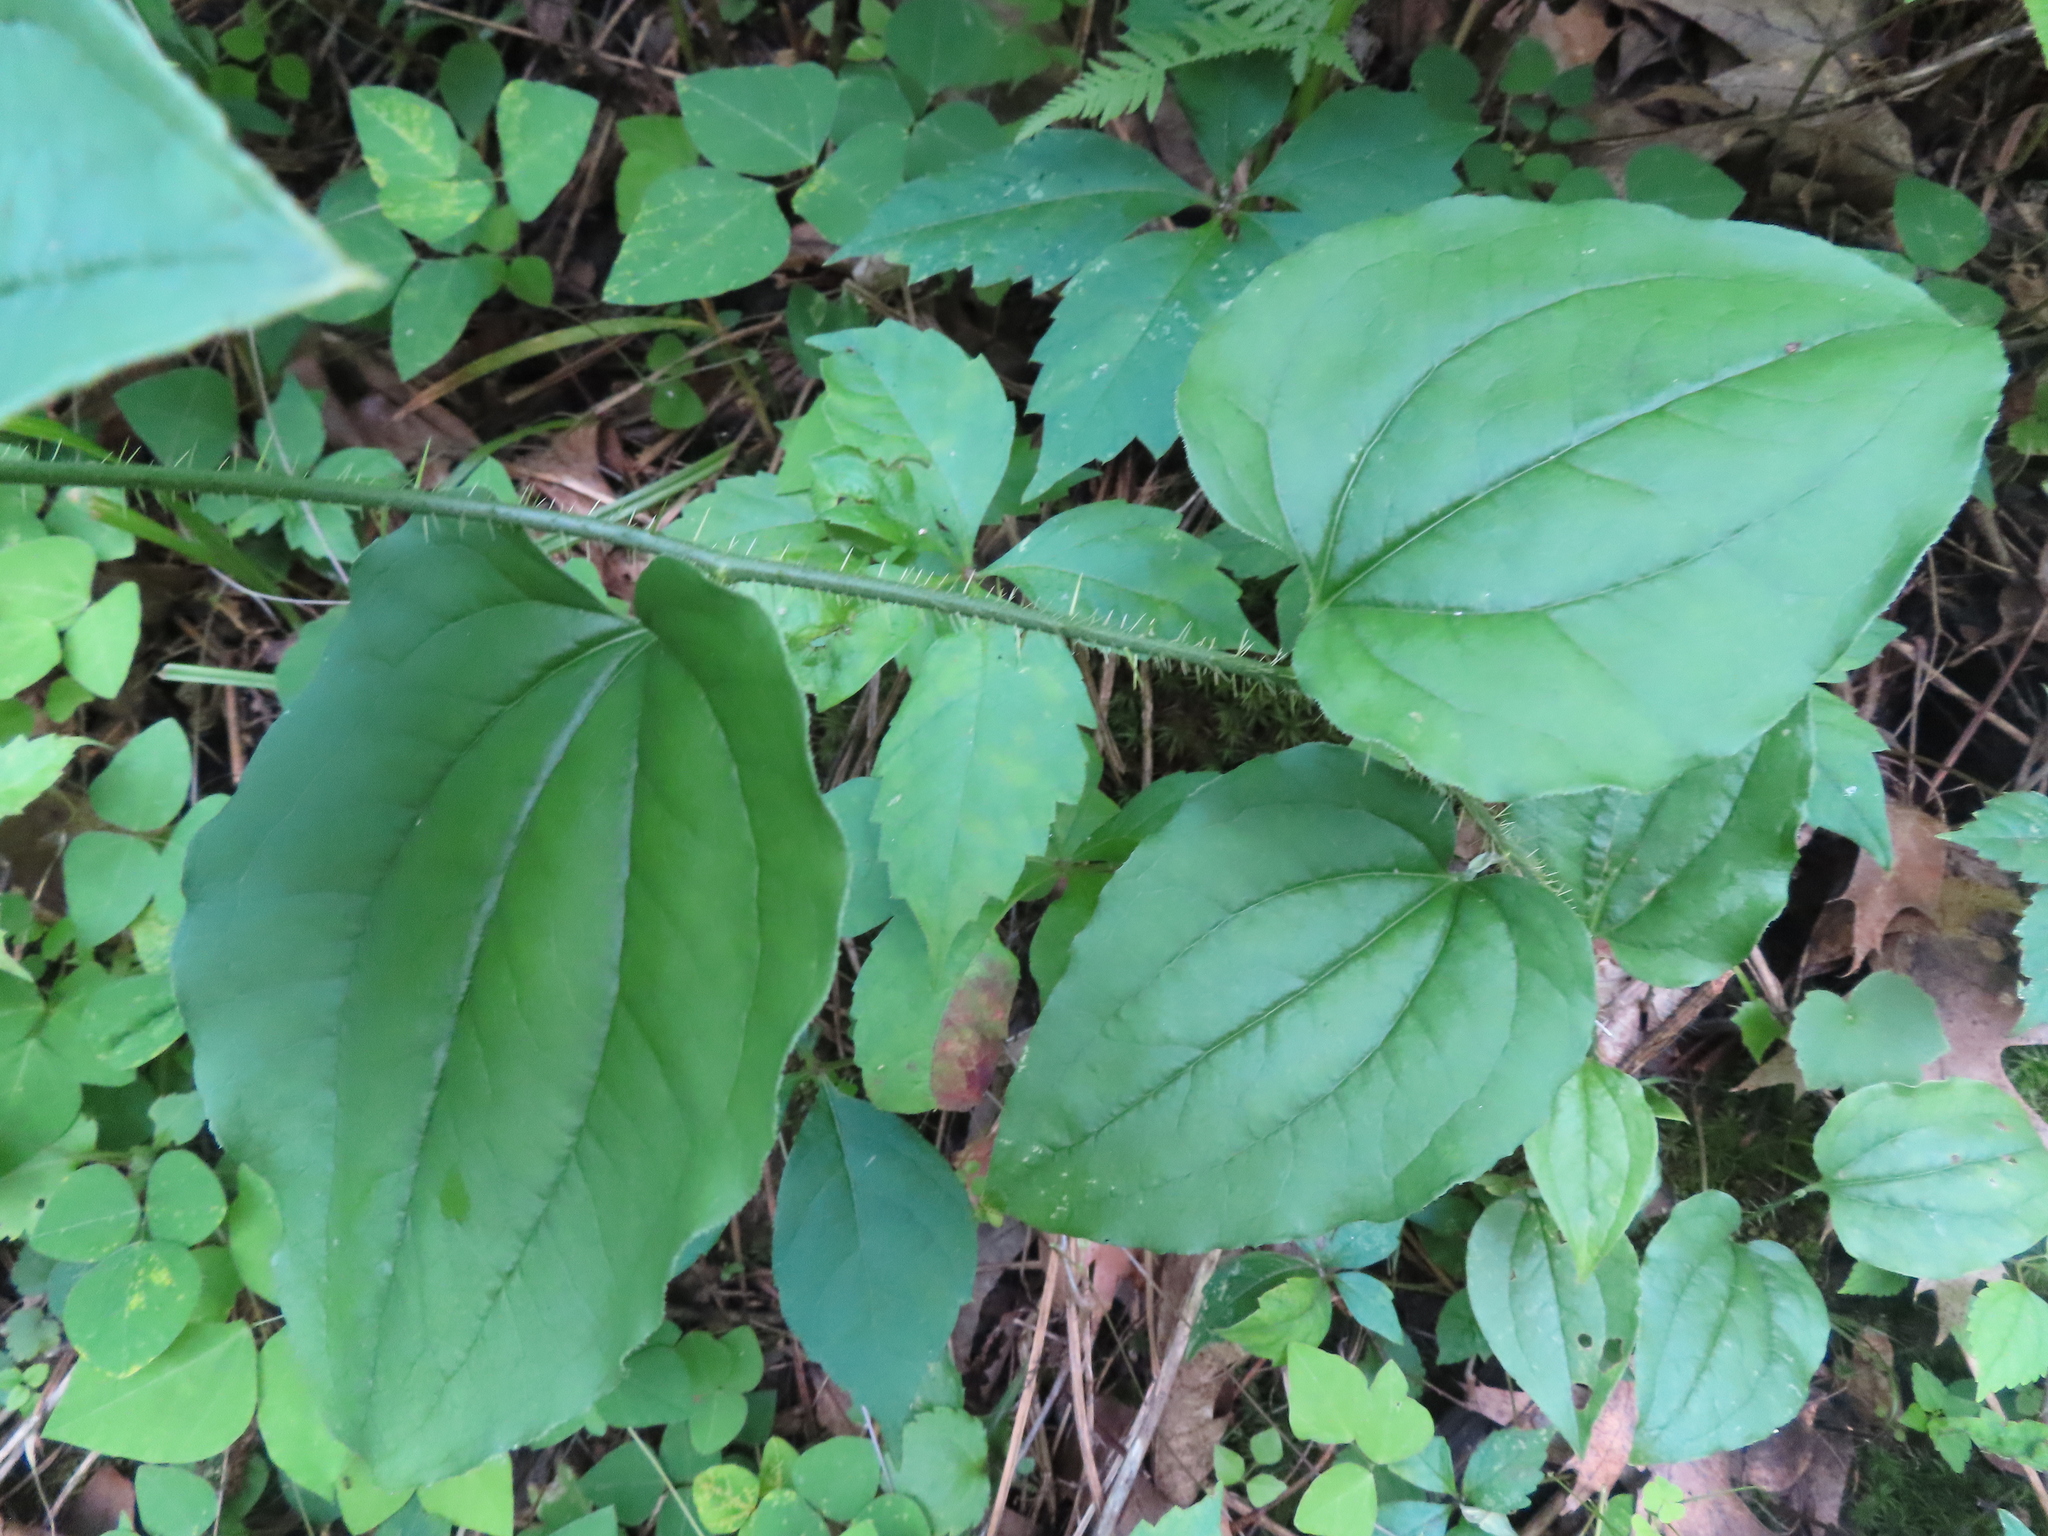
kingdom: Plantae
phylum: Tracheophyta
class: Liliopsida
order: Liliales
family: Smilacaceae
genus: Smilax
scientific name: Smilax tamnoides
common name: Hellfetter
